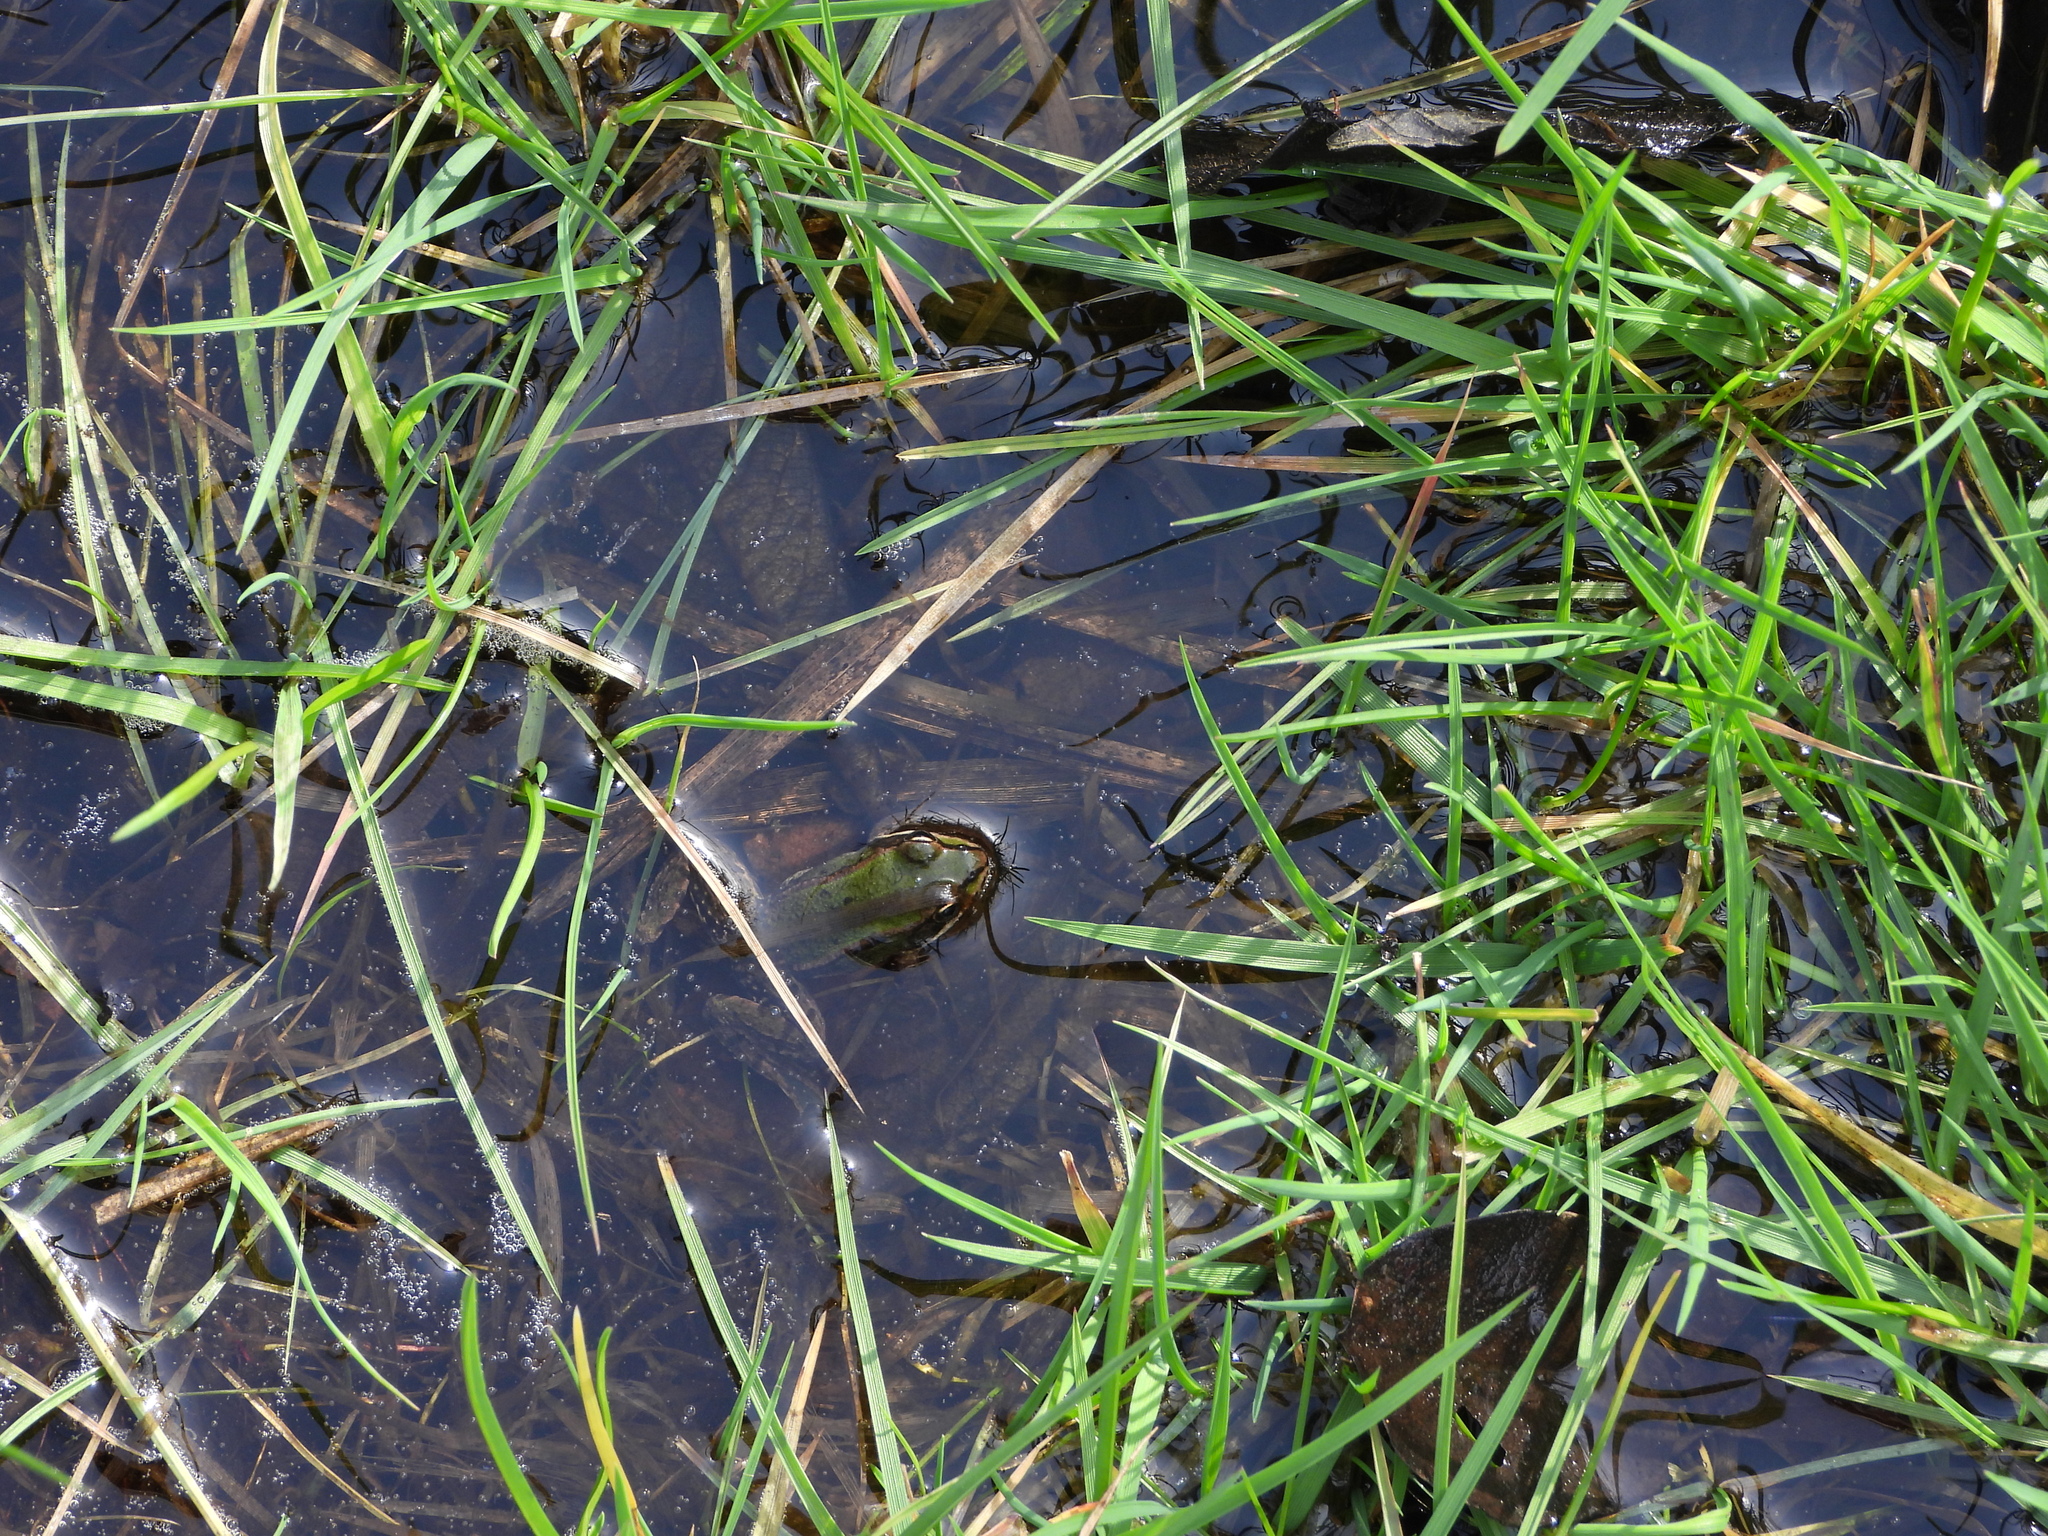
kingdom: Animalia
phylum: Chordata
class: Amphibia
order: Anura
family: Ranidae
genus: Pelophylax
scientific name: Pelophylax lessonae
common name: Pool frog
